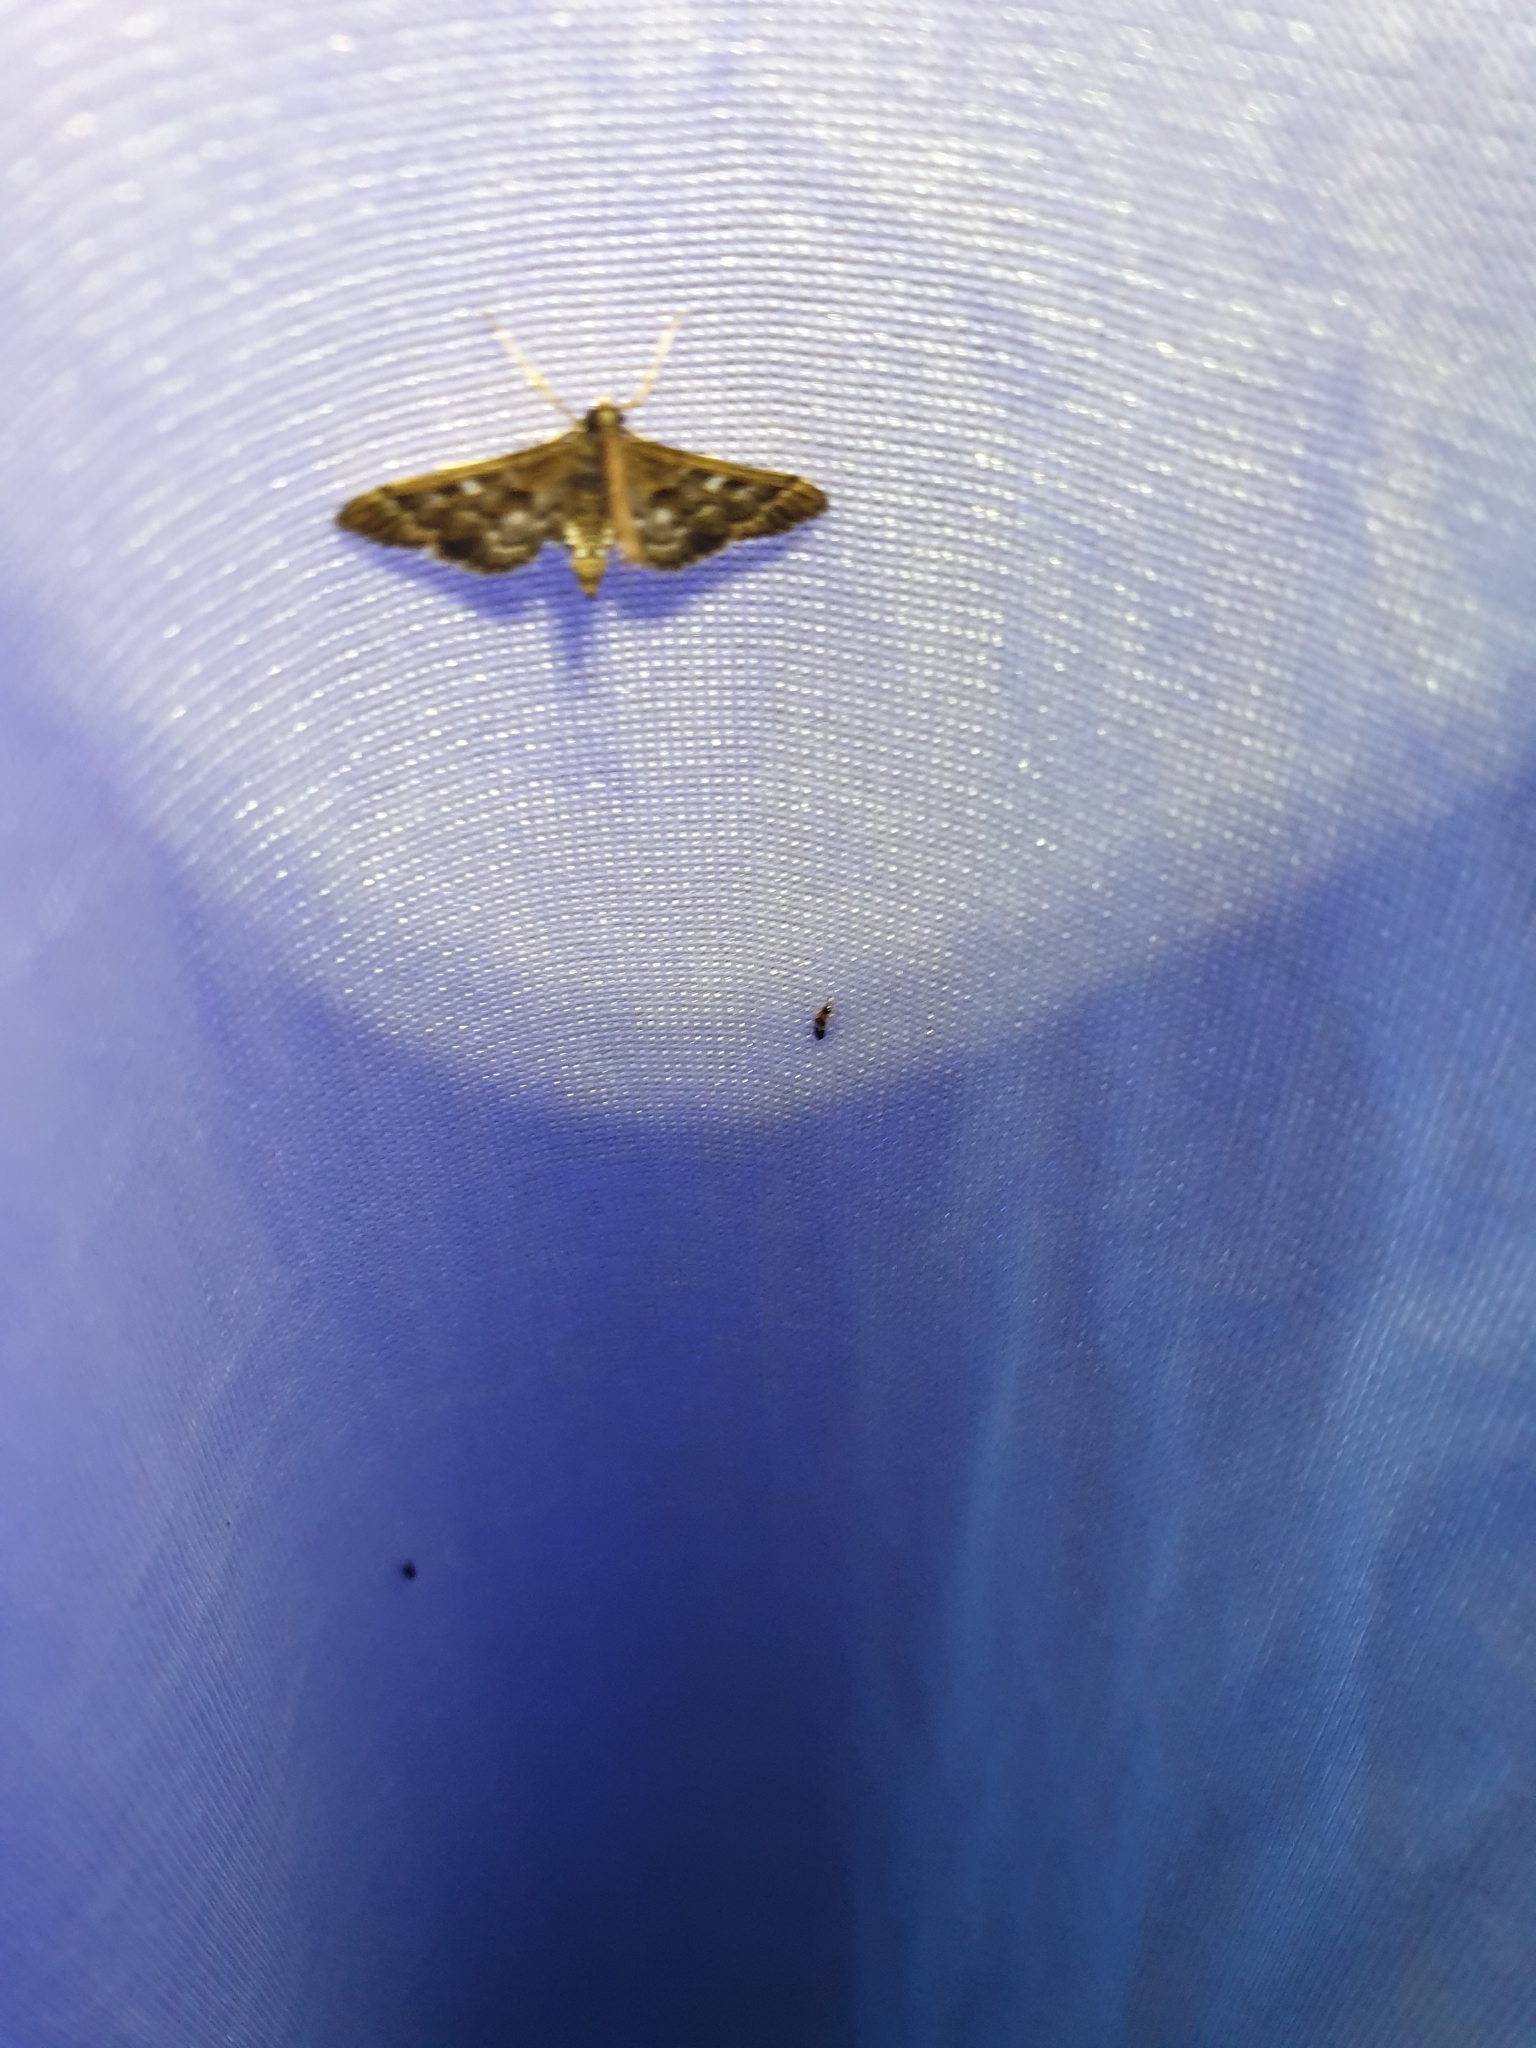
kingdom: Animalia
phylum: Arthropoda
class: Insecta
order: Lepidoptera
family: Crambidae
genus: Nacoleia
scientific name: Nacoleia rhoeoalis
